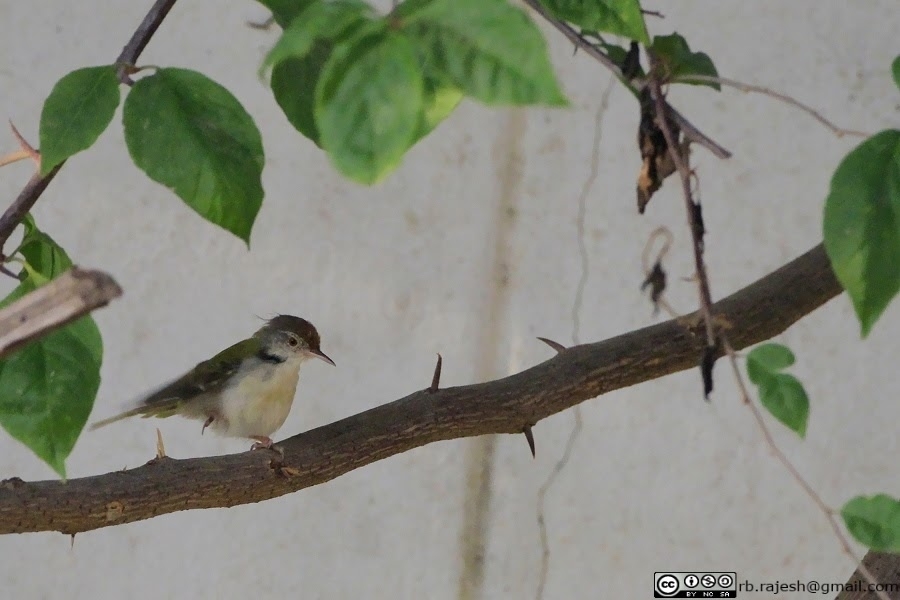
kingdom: Animalia
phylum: Chordata
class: Aves
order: Passeriformes
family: Cisticolidae
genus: Orthotomus
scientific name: Orthotomus sutorius
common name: Common tailorbird
